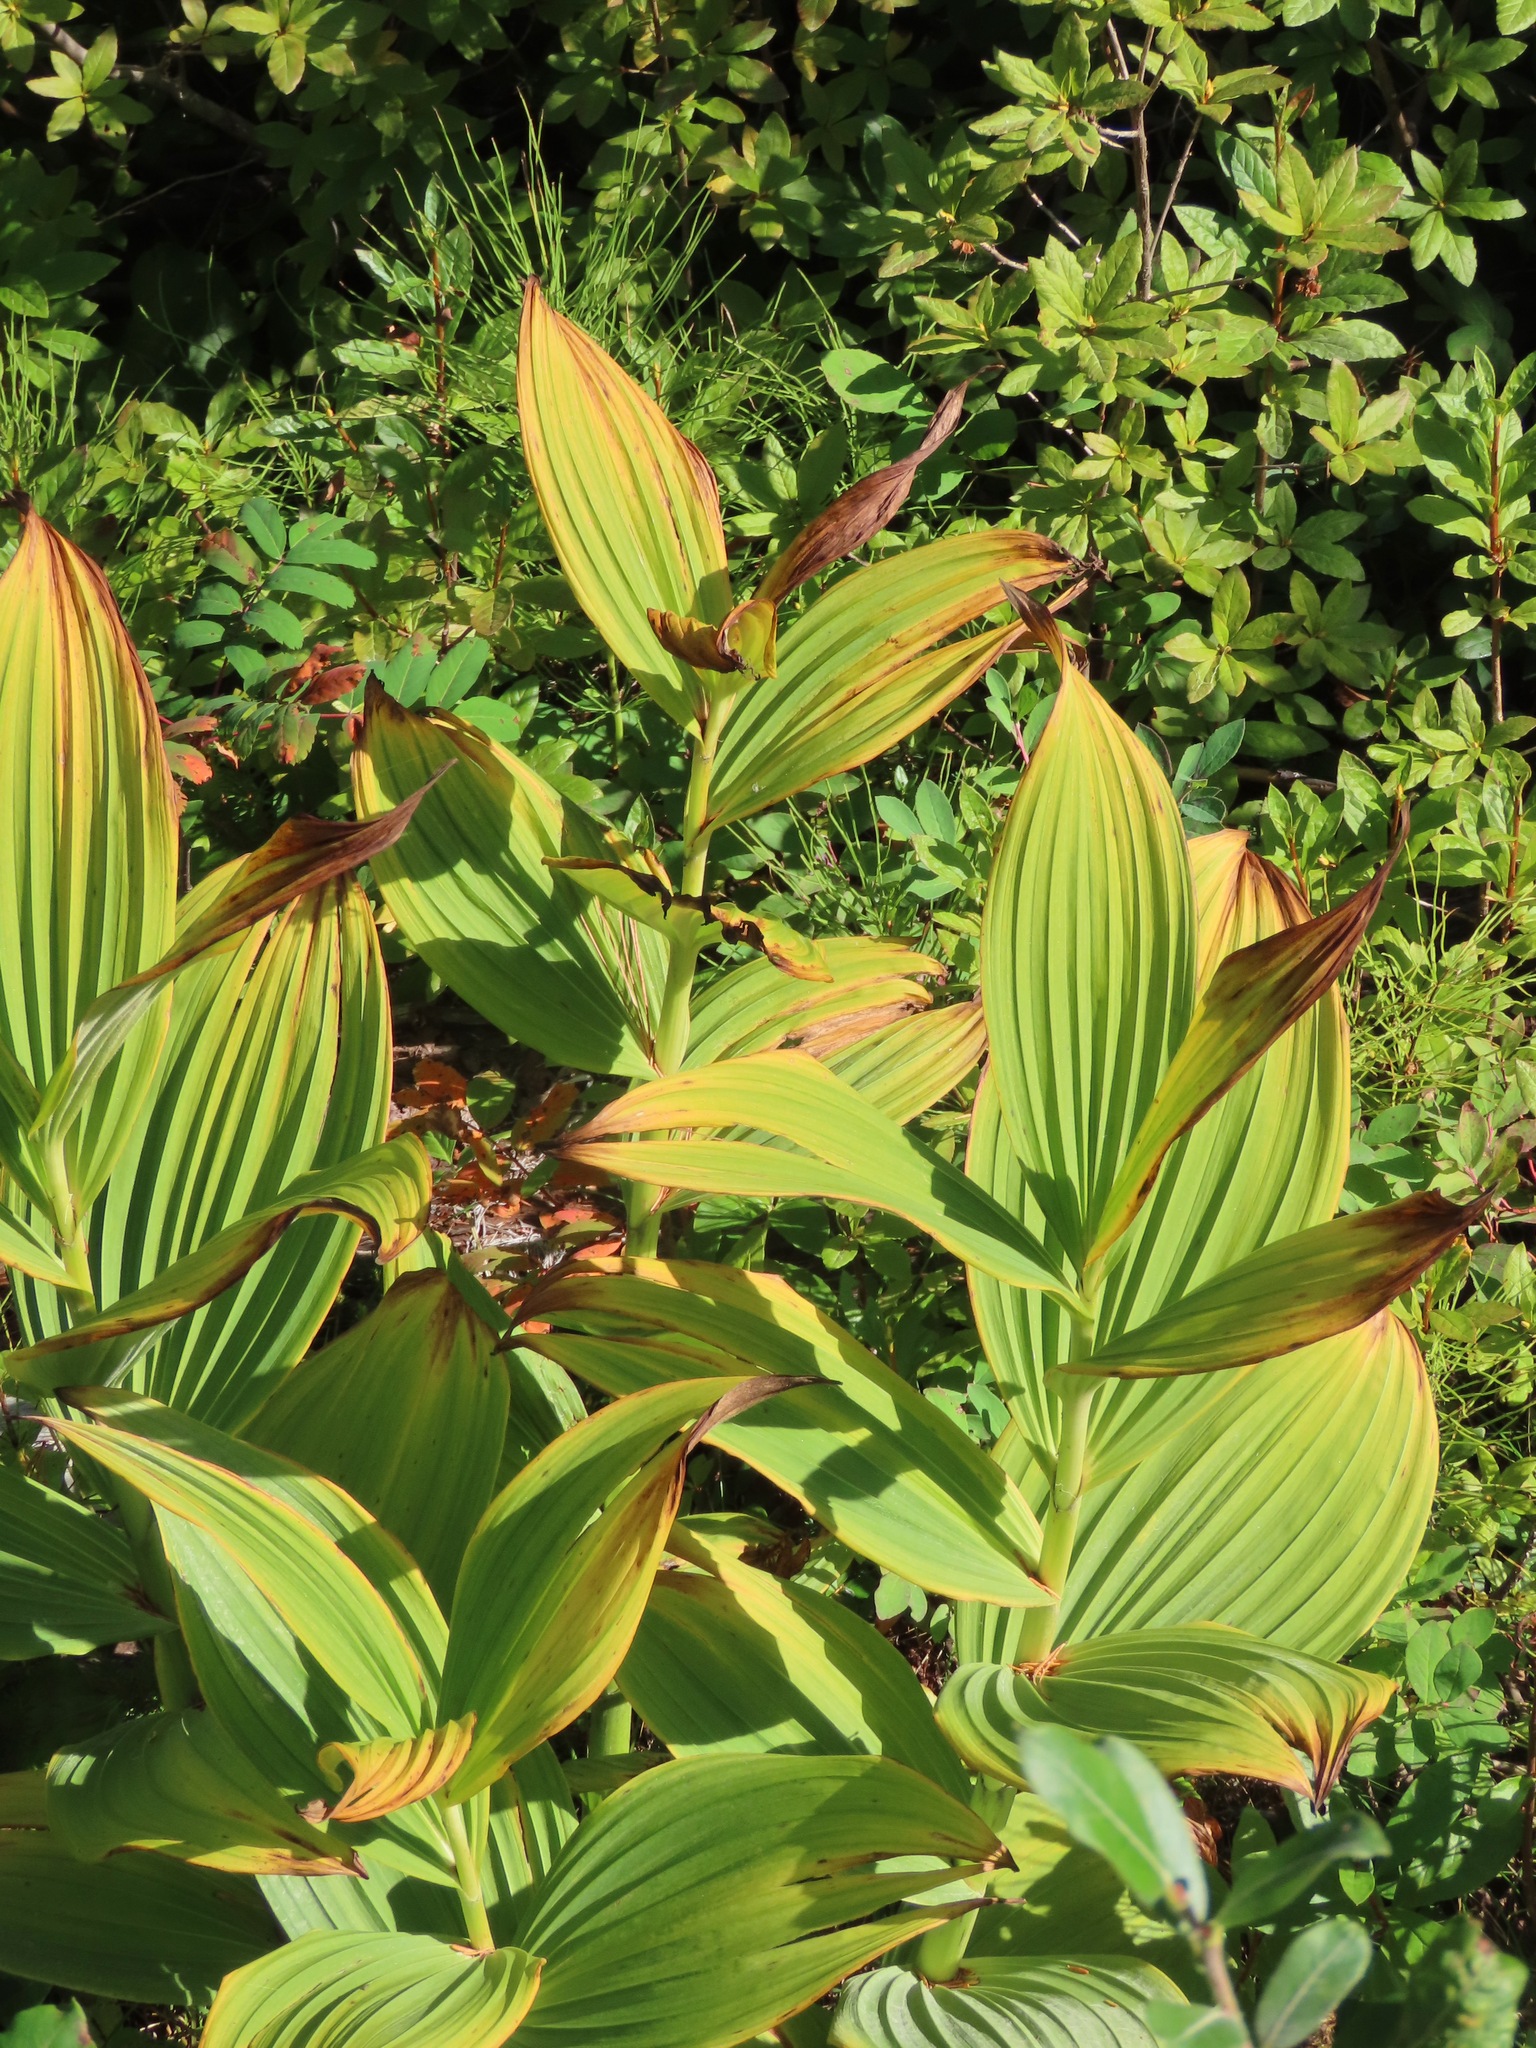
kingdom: Plantae
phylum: Tracheophyta
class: Liliopsida
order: Liliales
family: Melanthiaceae
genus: Veratrum
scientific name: Veratrum viride
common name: American false hellebore
